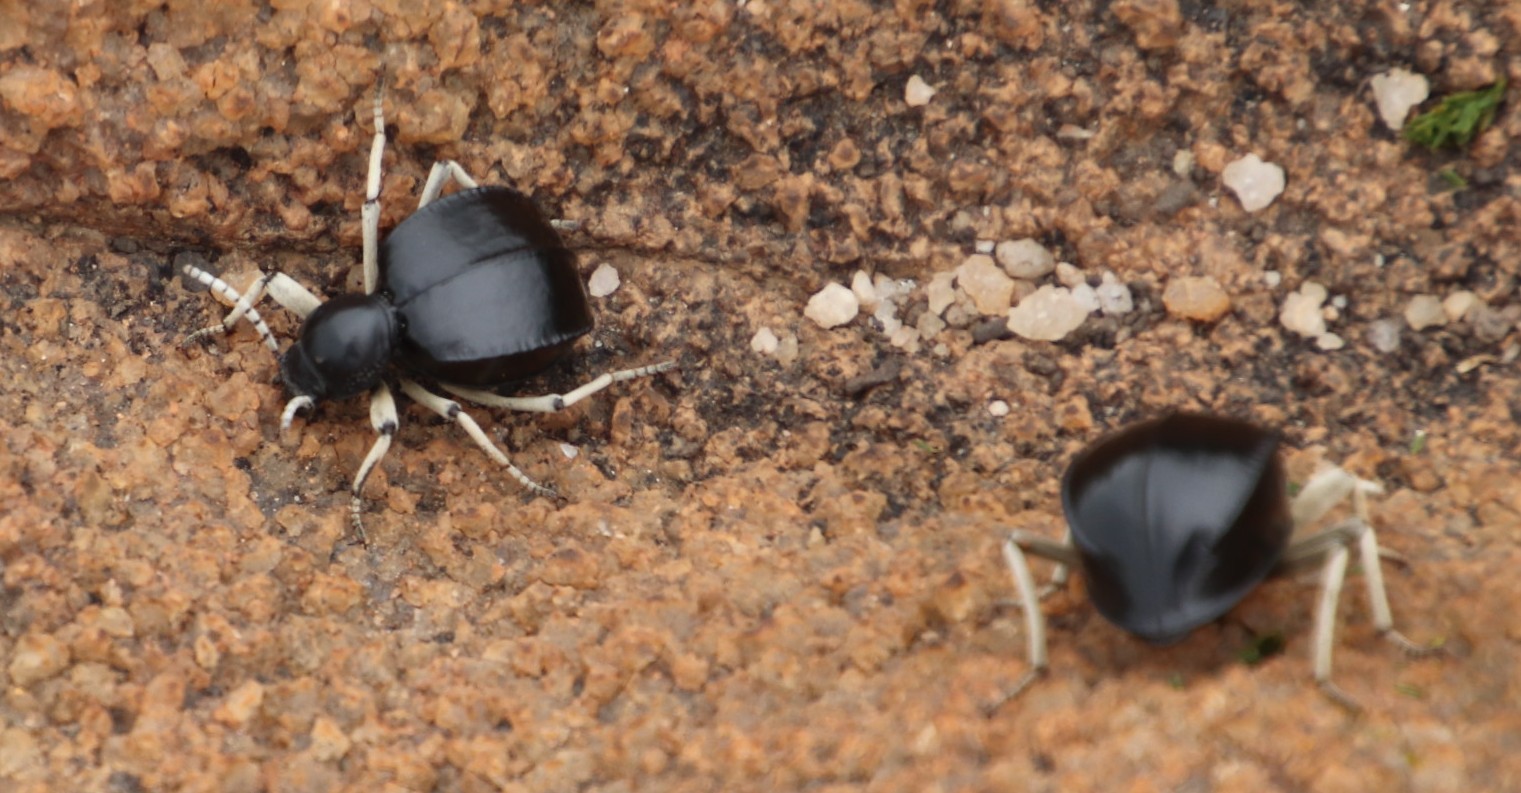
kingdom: Animalia
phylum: Arthropoda
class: Insecta
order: Coleoptera
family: Tenebrionidae
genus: Dichtha
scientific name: Dichtha cubica
